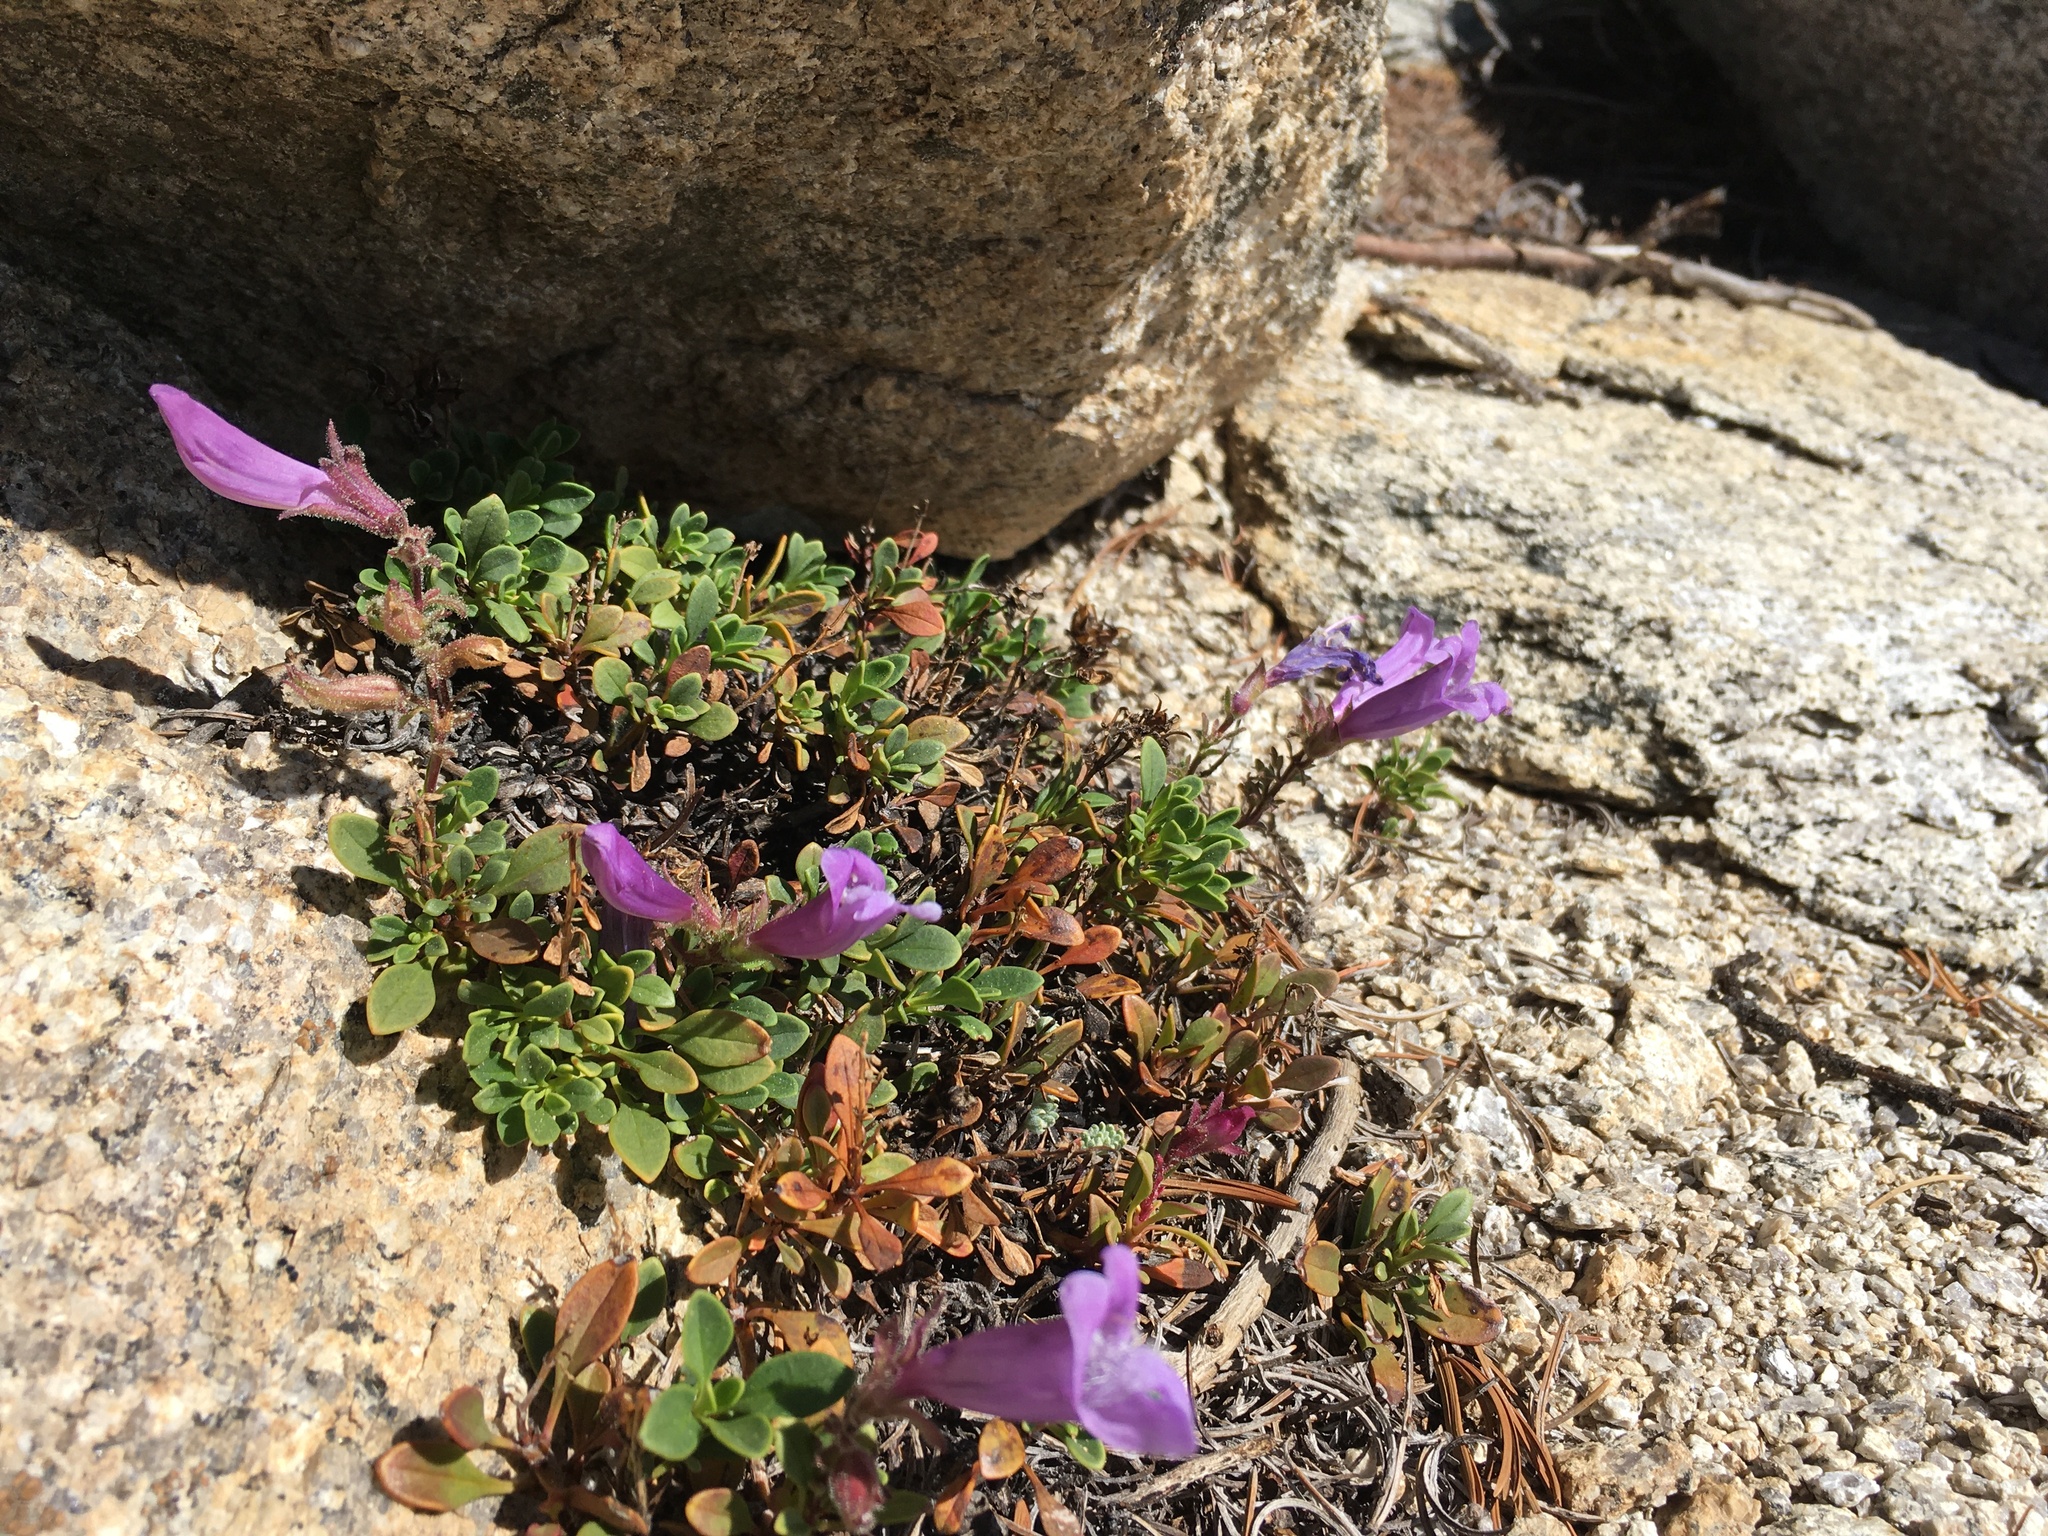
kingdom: Plantae
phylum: Tracheophyta
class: Magnoliopsida
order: Lamiales
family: Plantaginaceae
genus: Penstemon
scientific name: Penstemon davidsonii
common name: Davidson's penstemon
